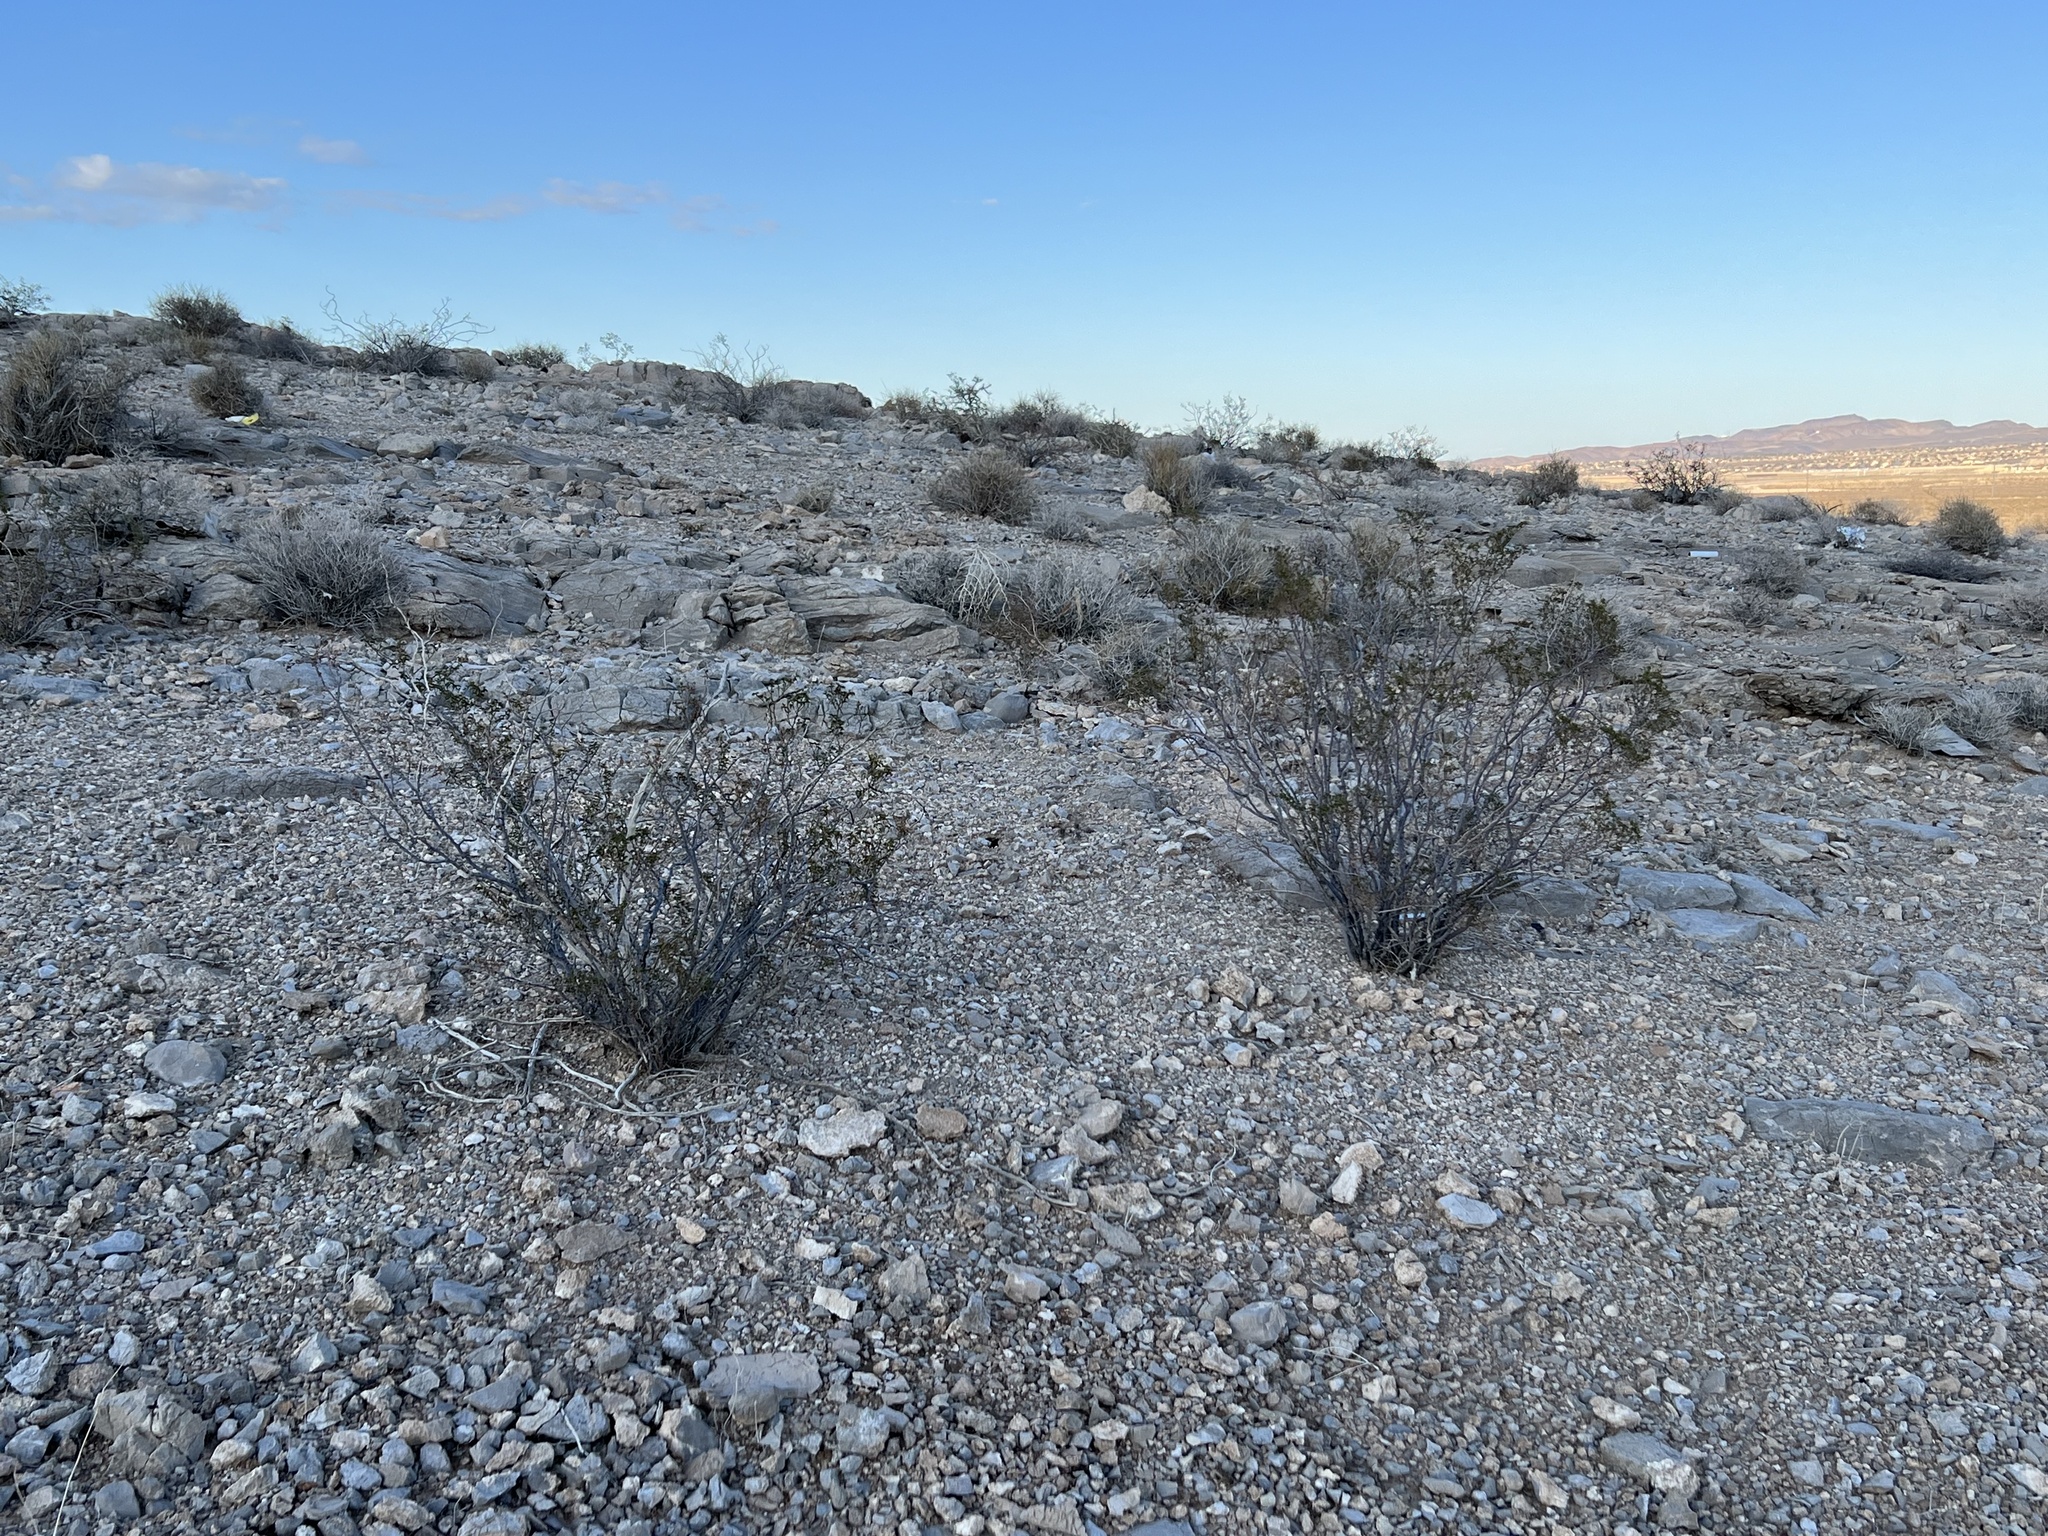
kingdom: Plantae
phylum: Tracheophyta
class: Magnoliopsida
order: Zygophyllales
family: Zygophyllaceae
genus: Larrea
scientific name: Larrea tridentata
